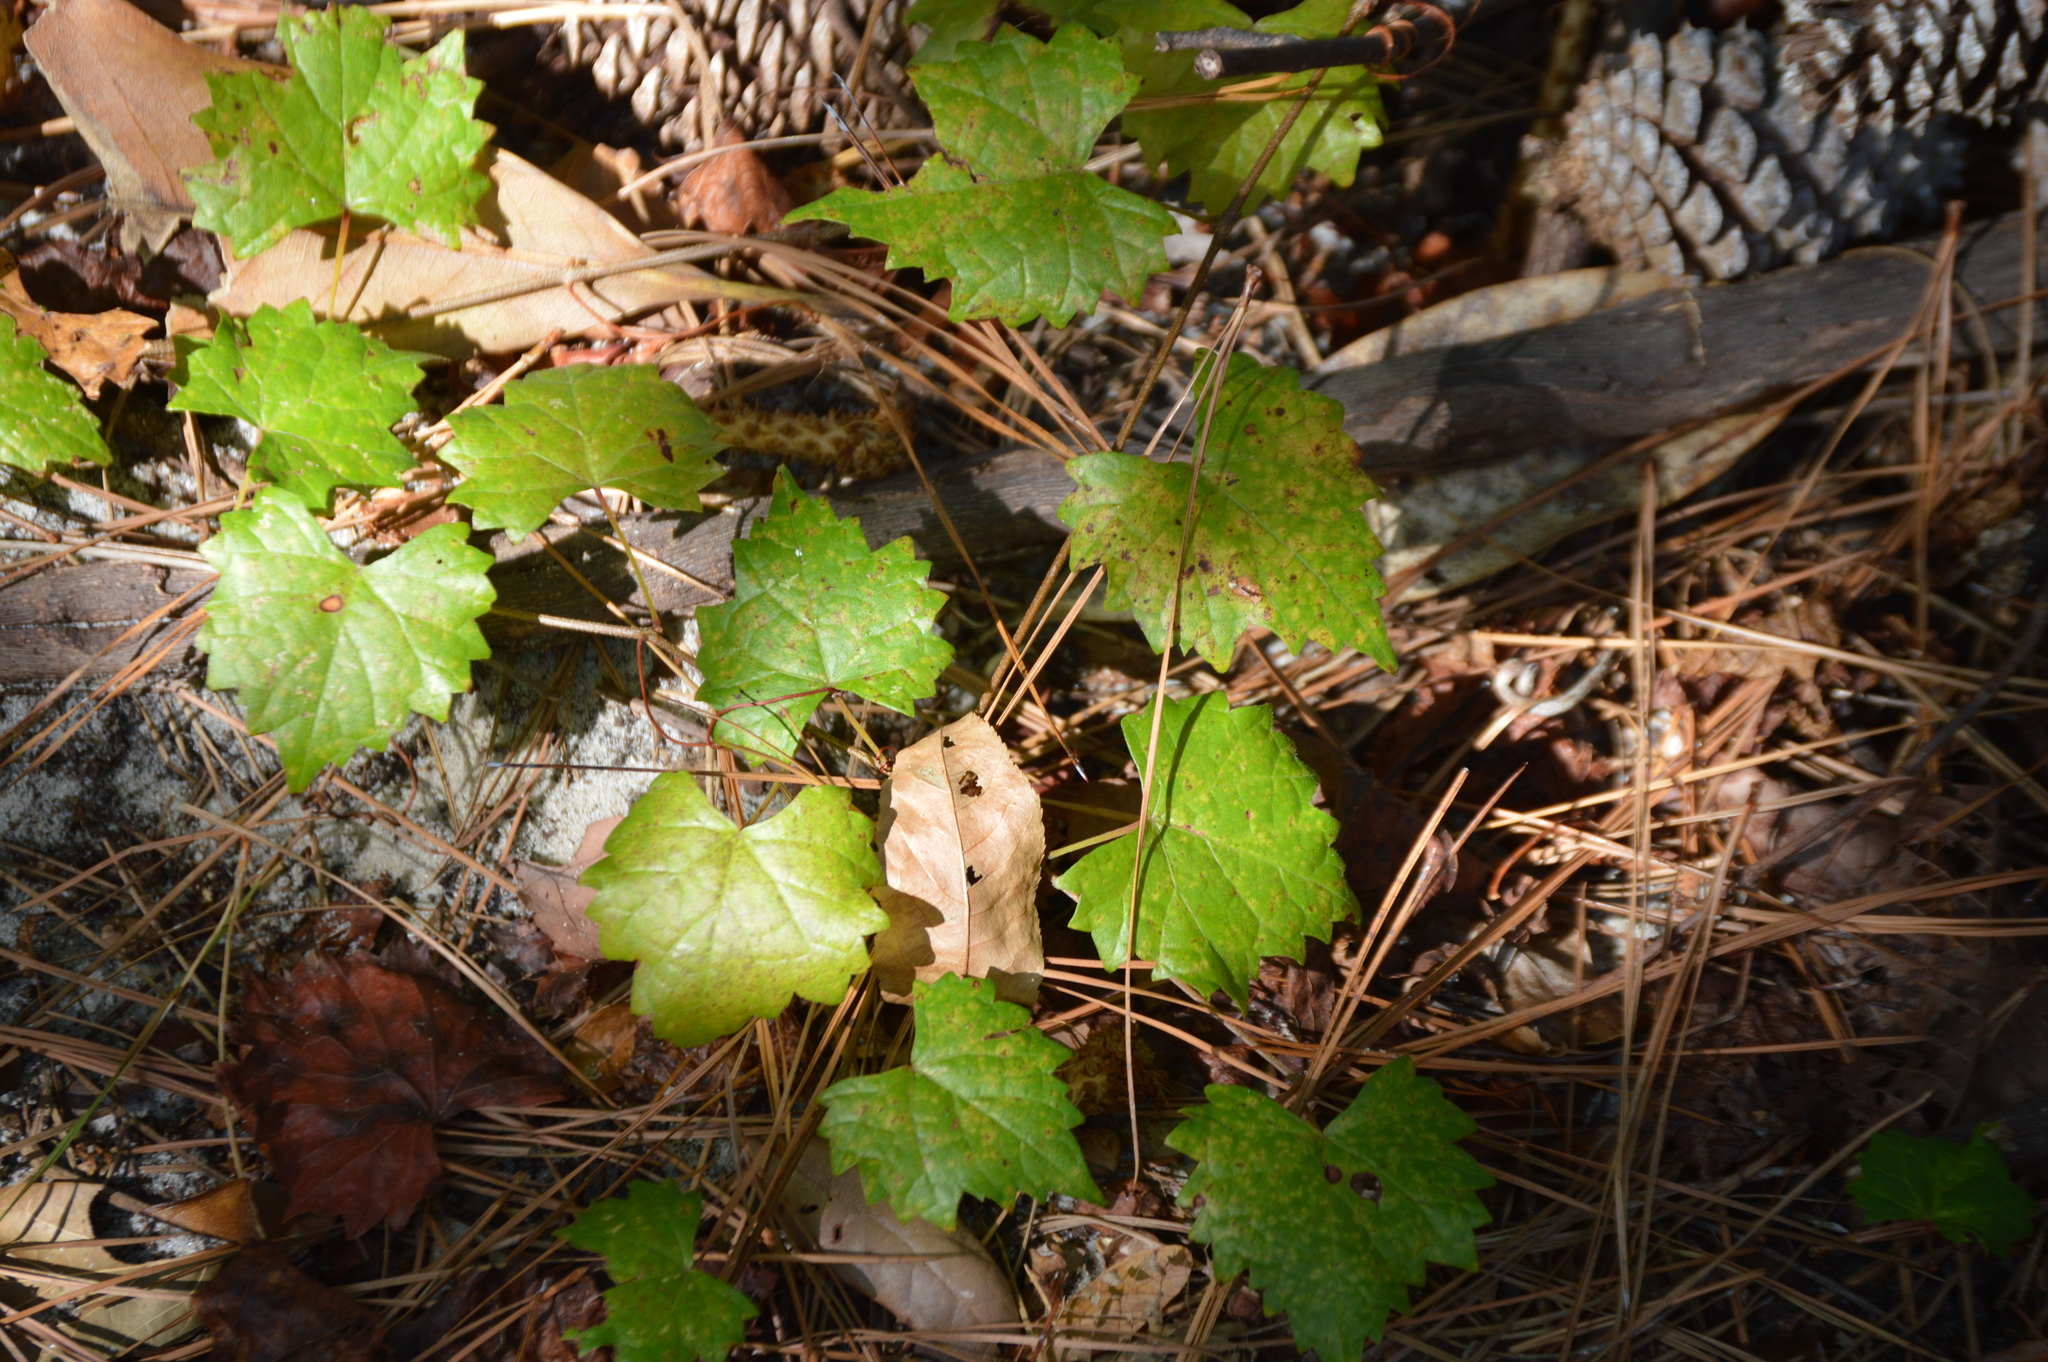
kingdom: Plantae
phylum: Tracheophyta
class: Magnoliopsida
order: Vitales
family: Vitaceae
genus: Vitis
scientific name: Vitis rotundifolia
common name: Muscadine grape
